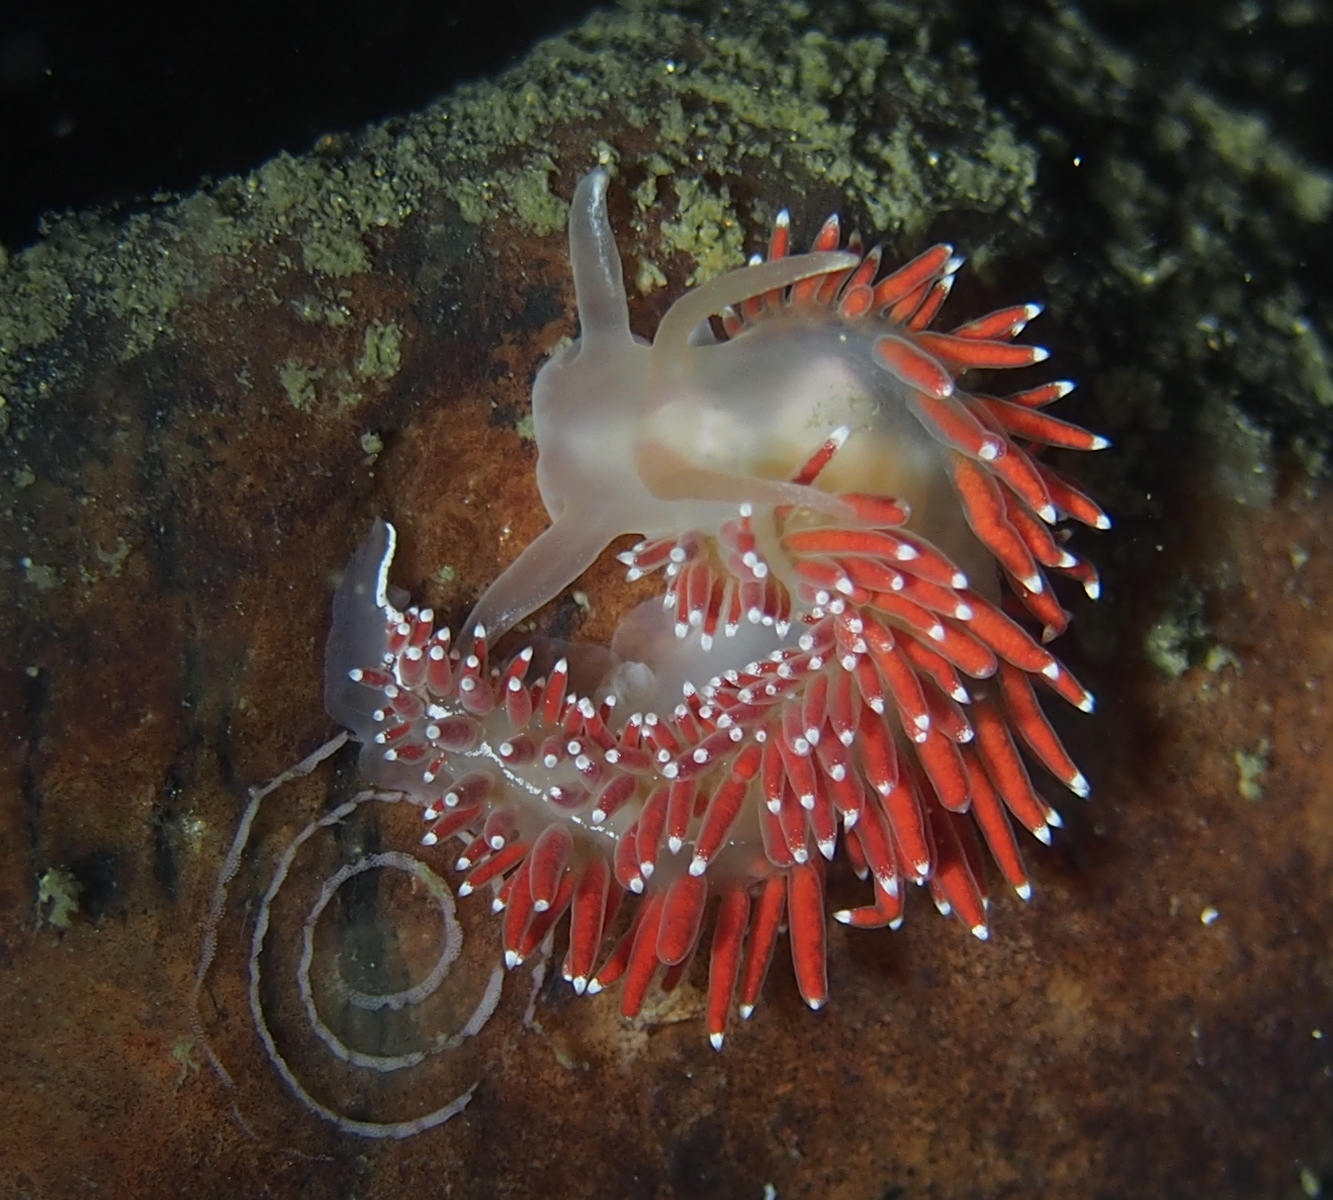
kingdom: Animalia
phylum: Mollusca
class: Gastropoda
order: Nudibranchia
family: Coryphellidae
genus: Coryphella
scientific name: Coryphella verrucosa
